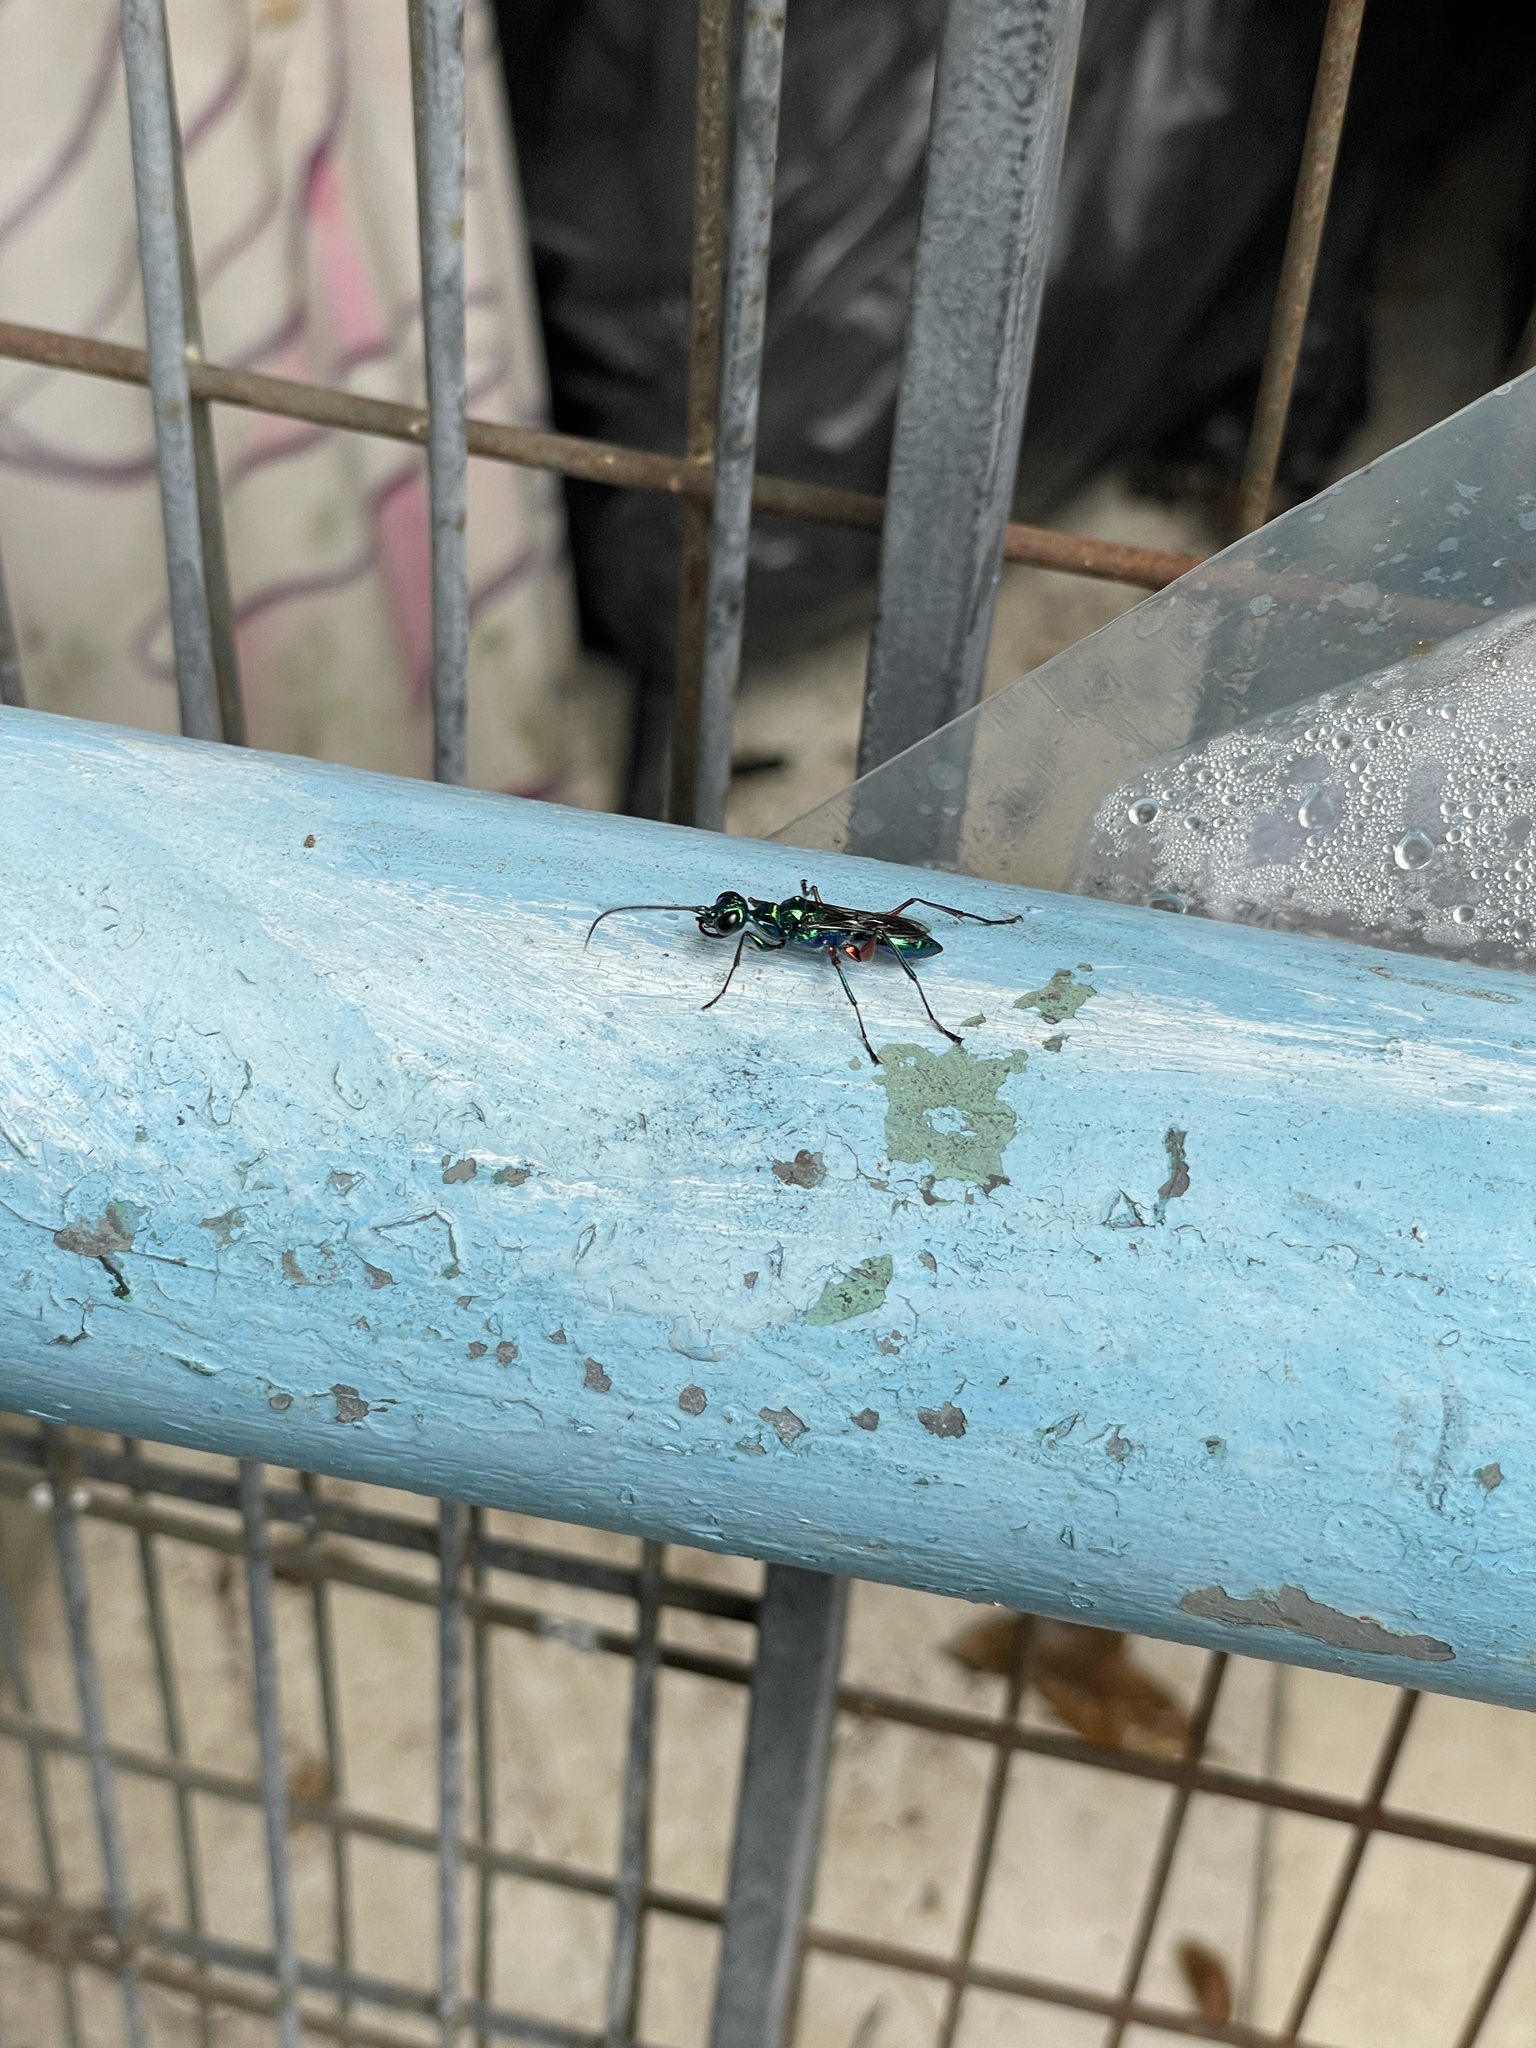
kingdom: Animalia
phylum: Arthropoda
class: Insecta
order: Hymenoptera
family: Ampulicidae
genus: Ampulex
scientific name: Ampulex compressa
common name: Emerald cockroach wasp
